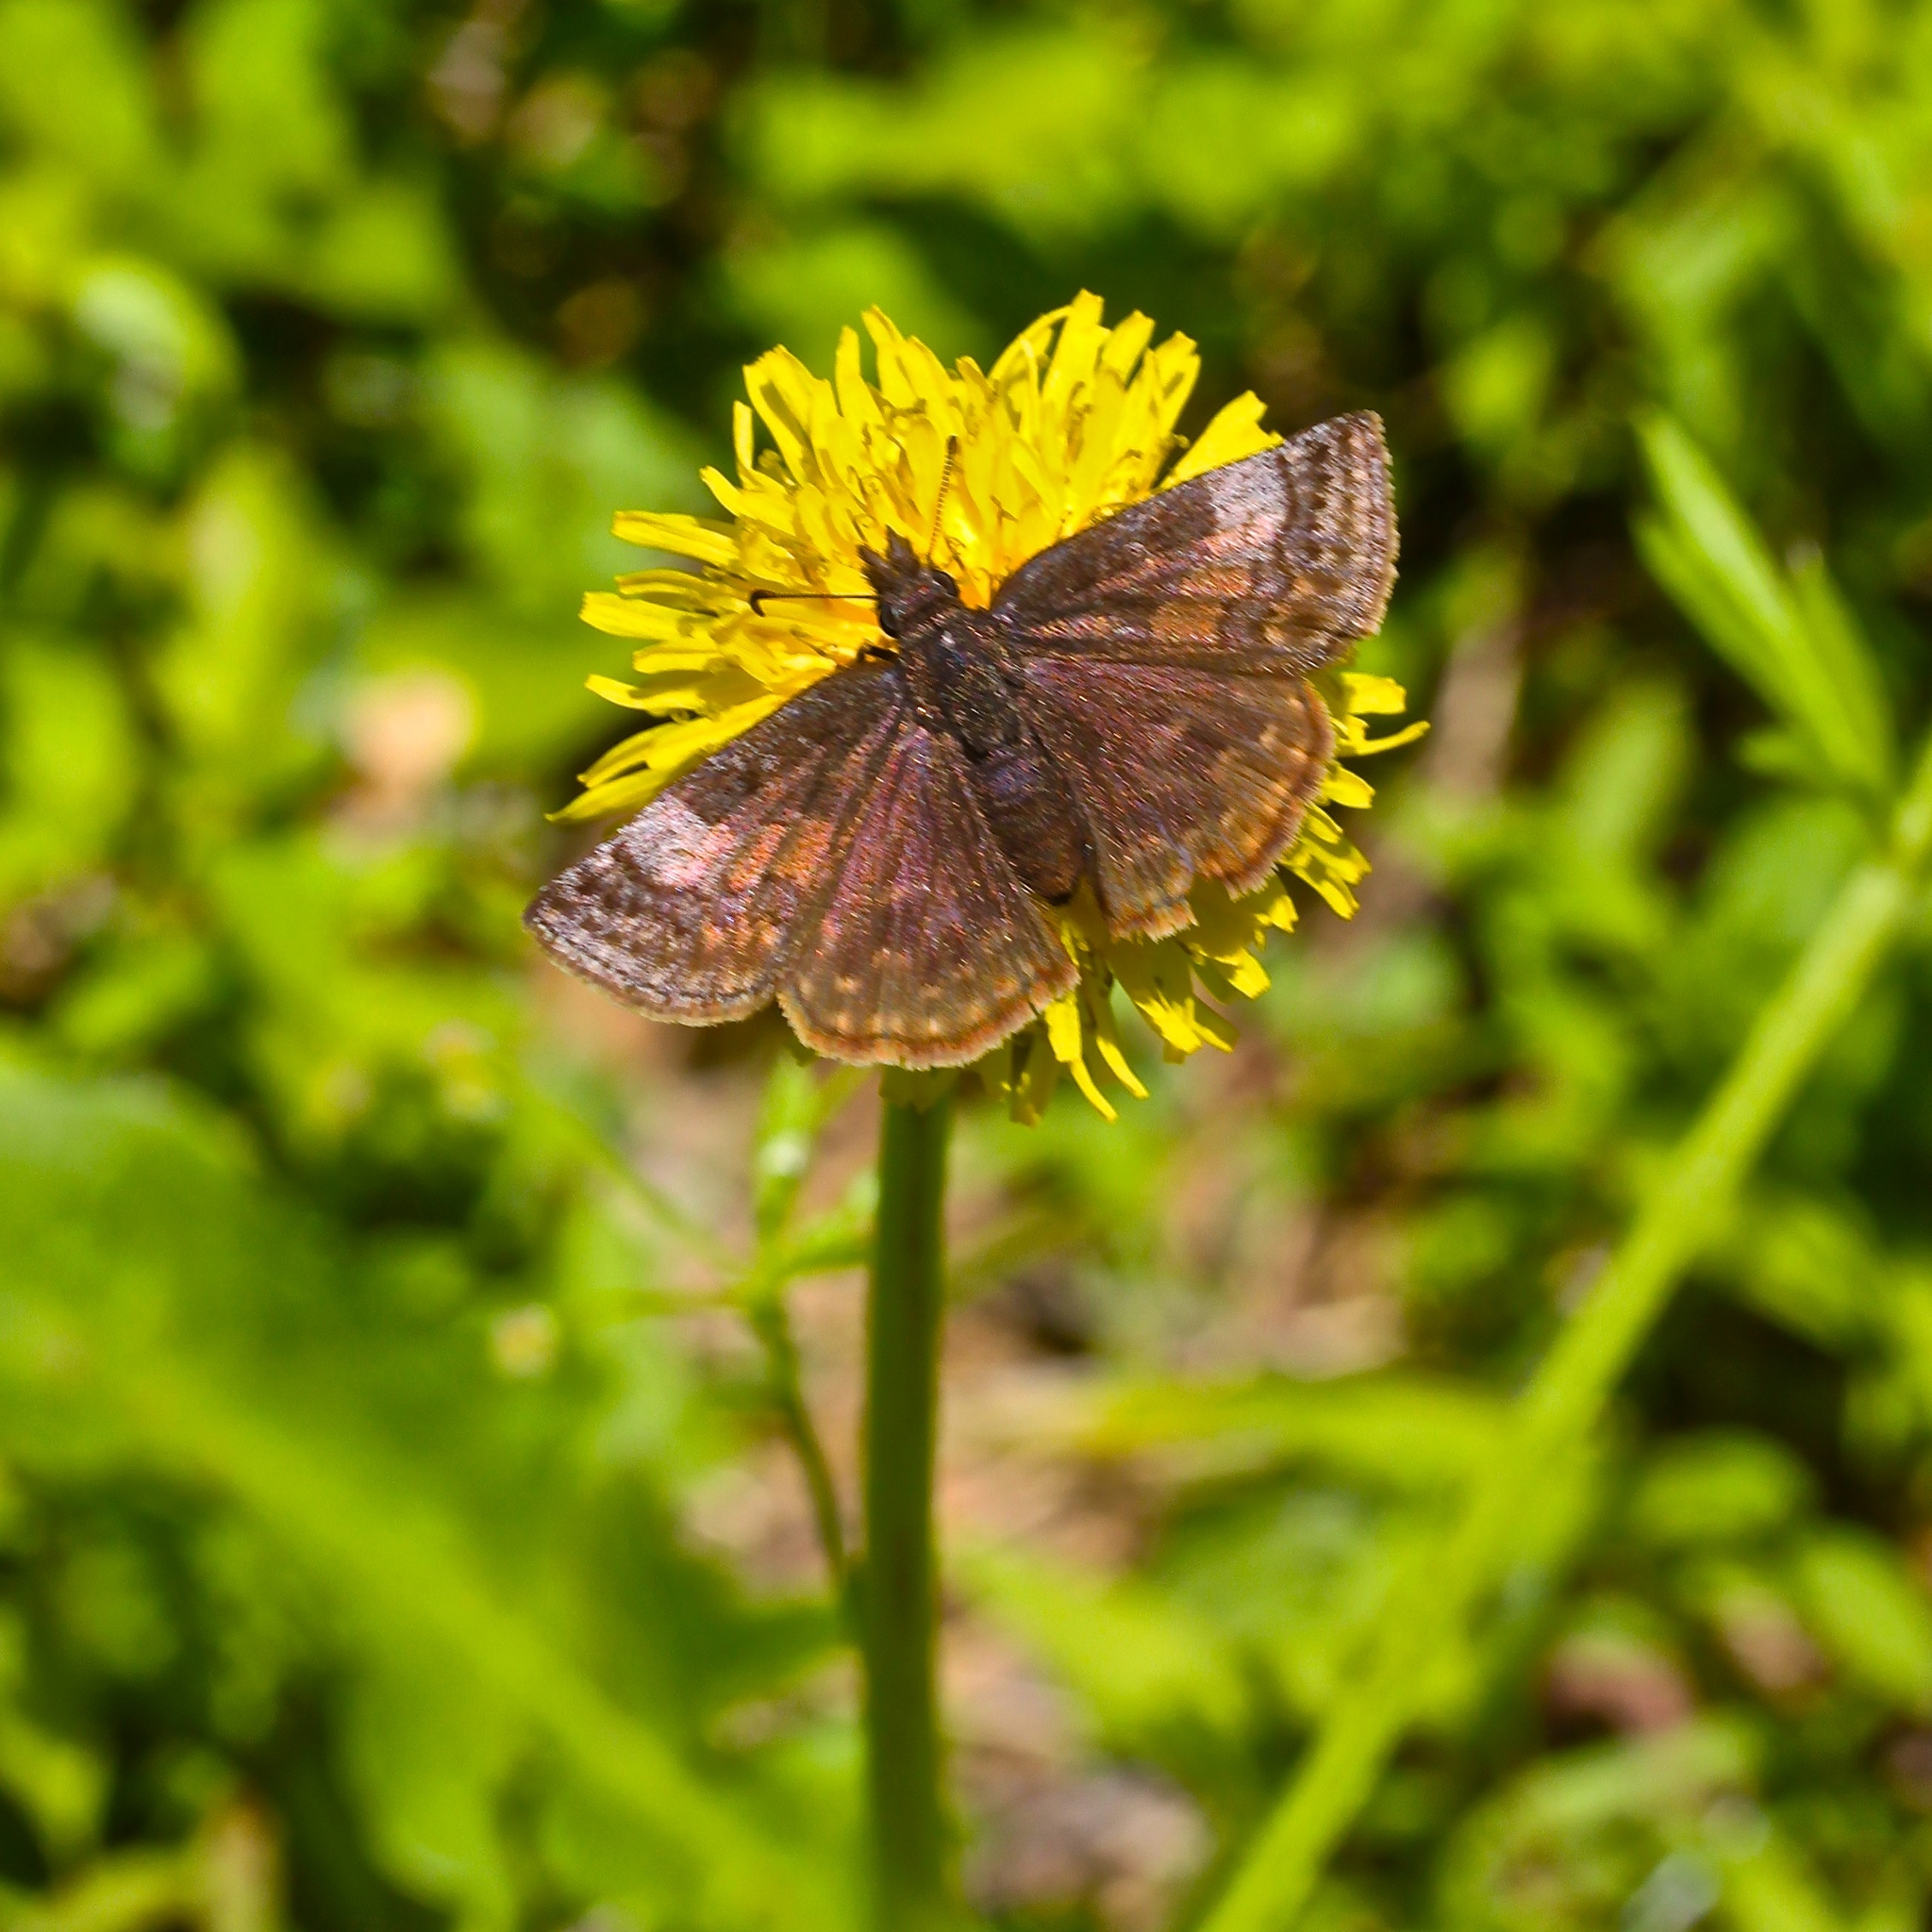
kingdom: Animalia
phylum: Arthropoda
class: Insecta
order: Lepidoptera
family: Hesperiidae
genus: Erynnis
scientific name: Erynnis icelus
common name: Dreamy duskywing
